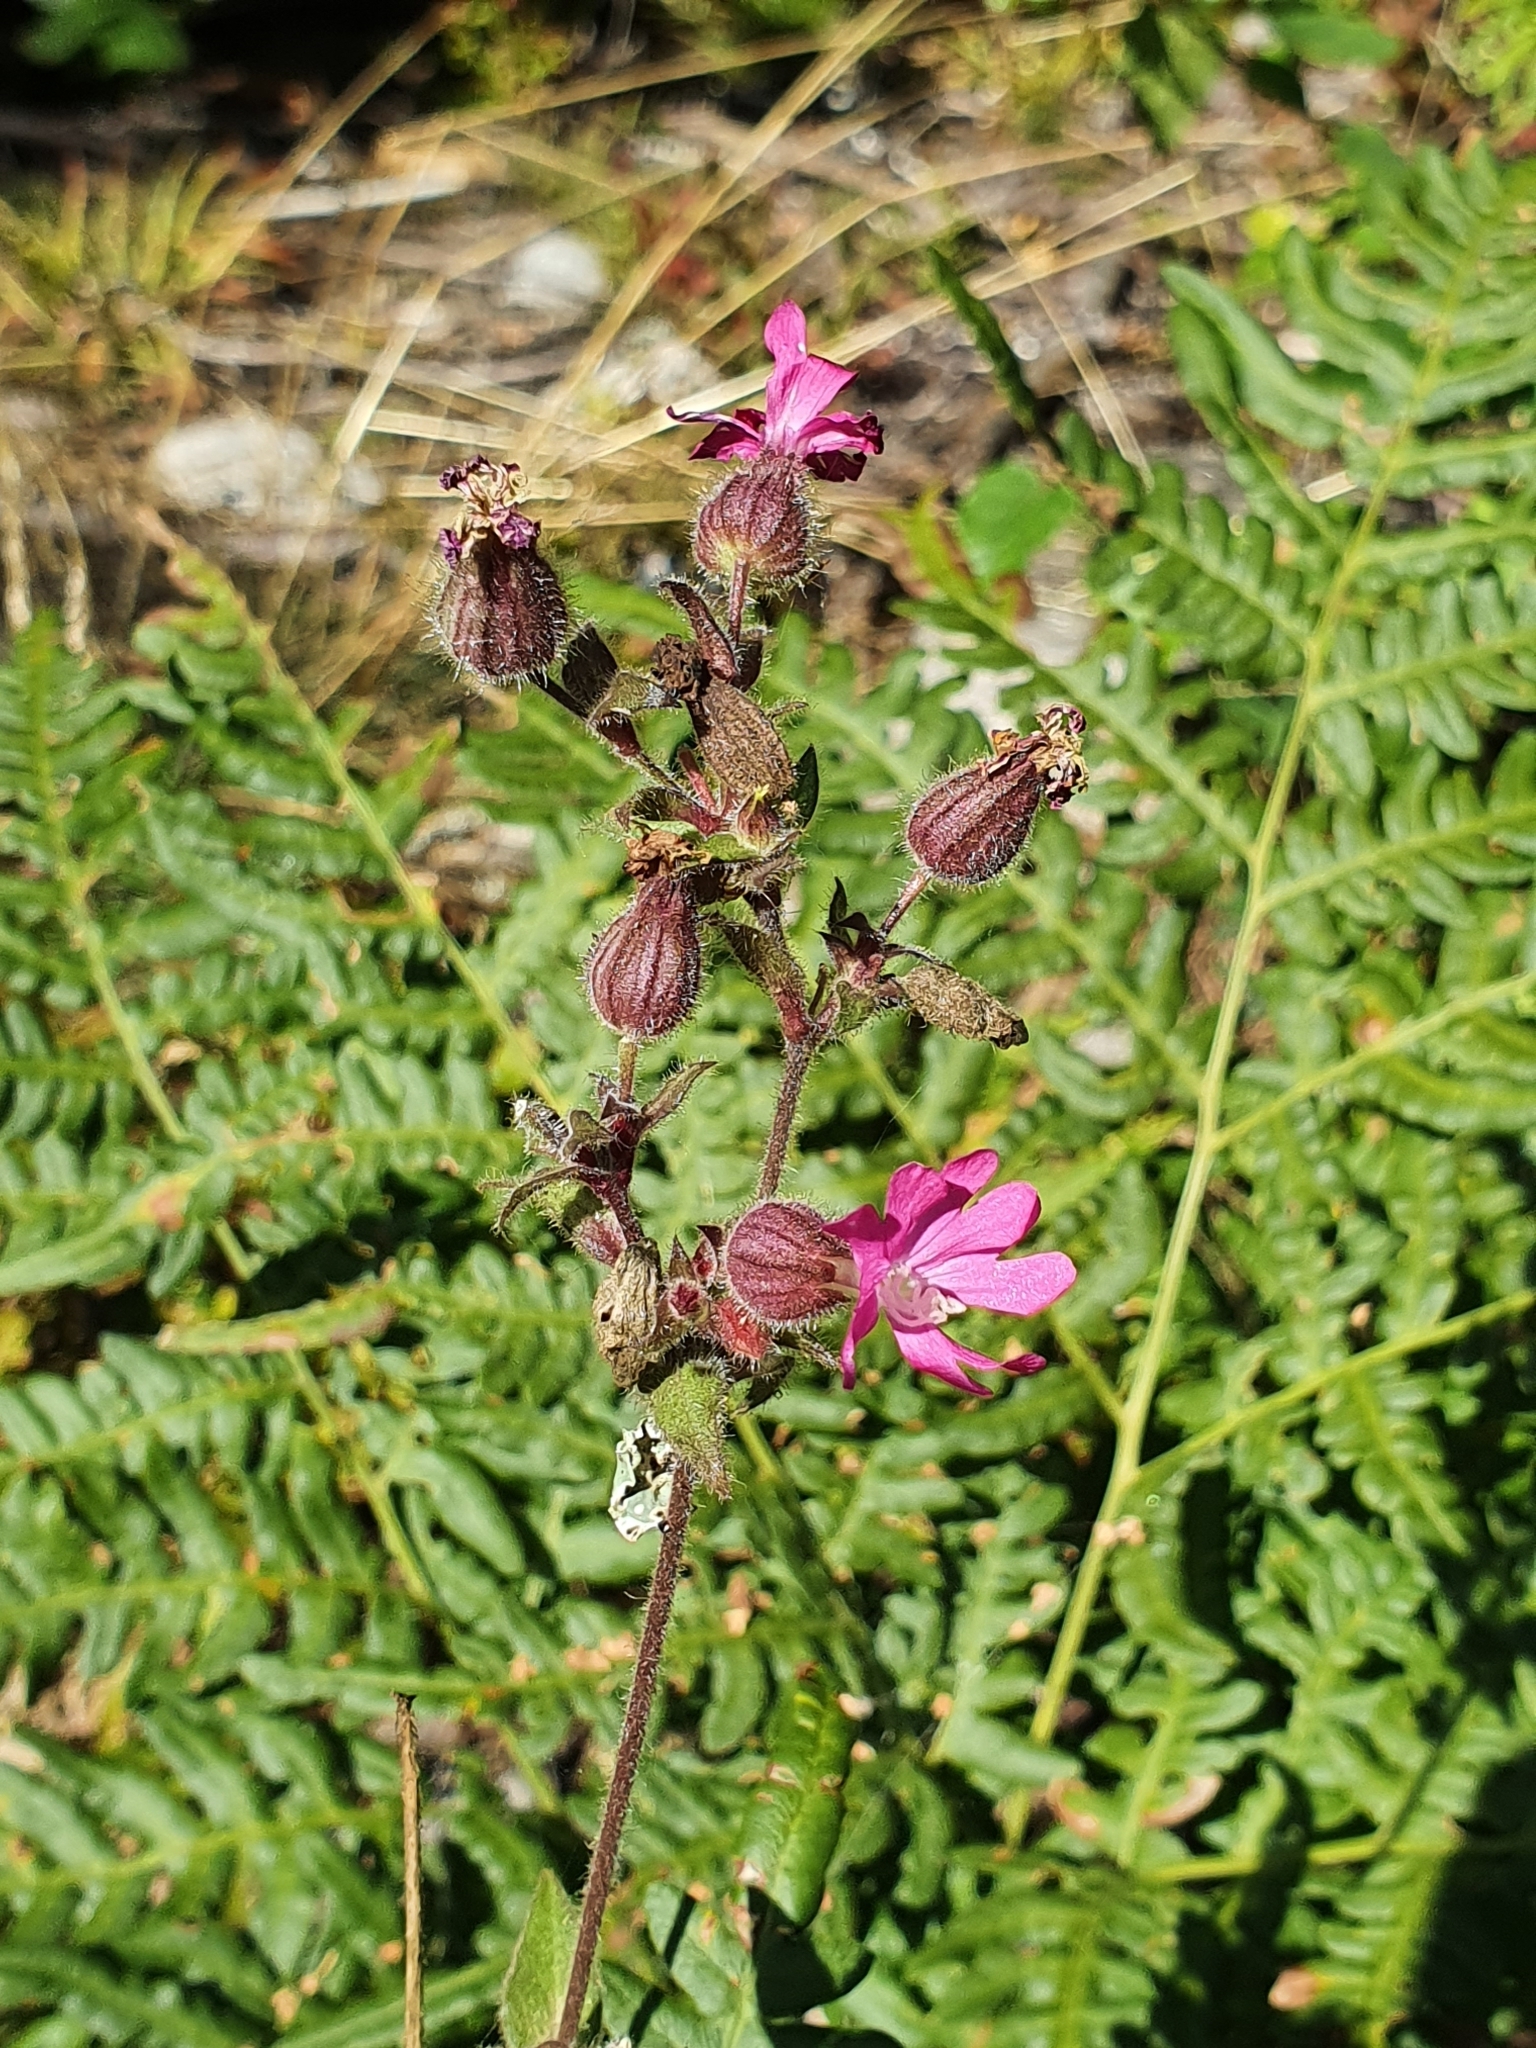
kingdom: Plantae
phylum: Tracheophyta
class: Magnoliopsida
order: Caryophyllales
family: Caryophyllaceae
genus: Silene
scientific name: Silene dioica
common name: Red campion
